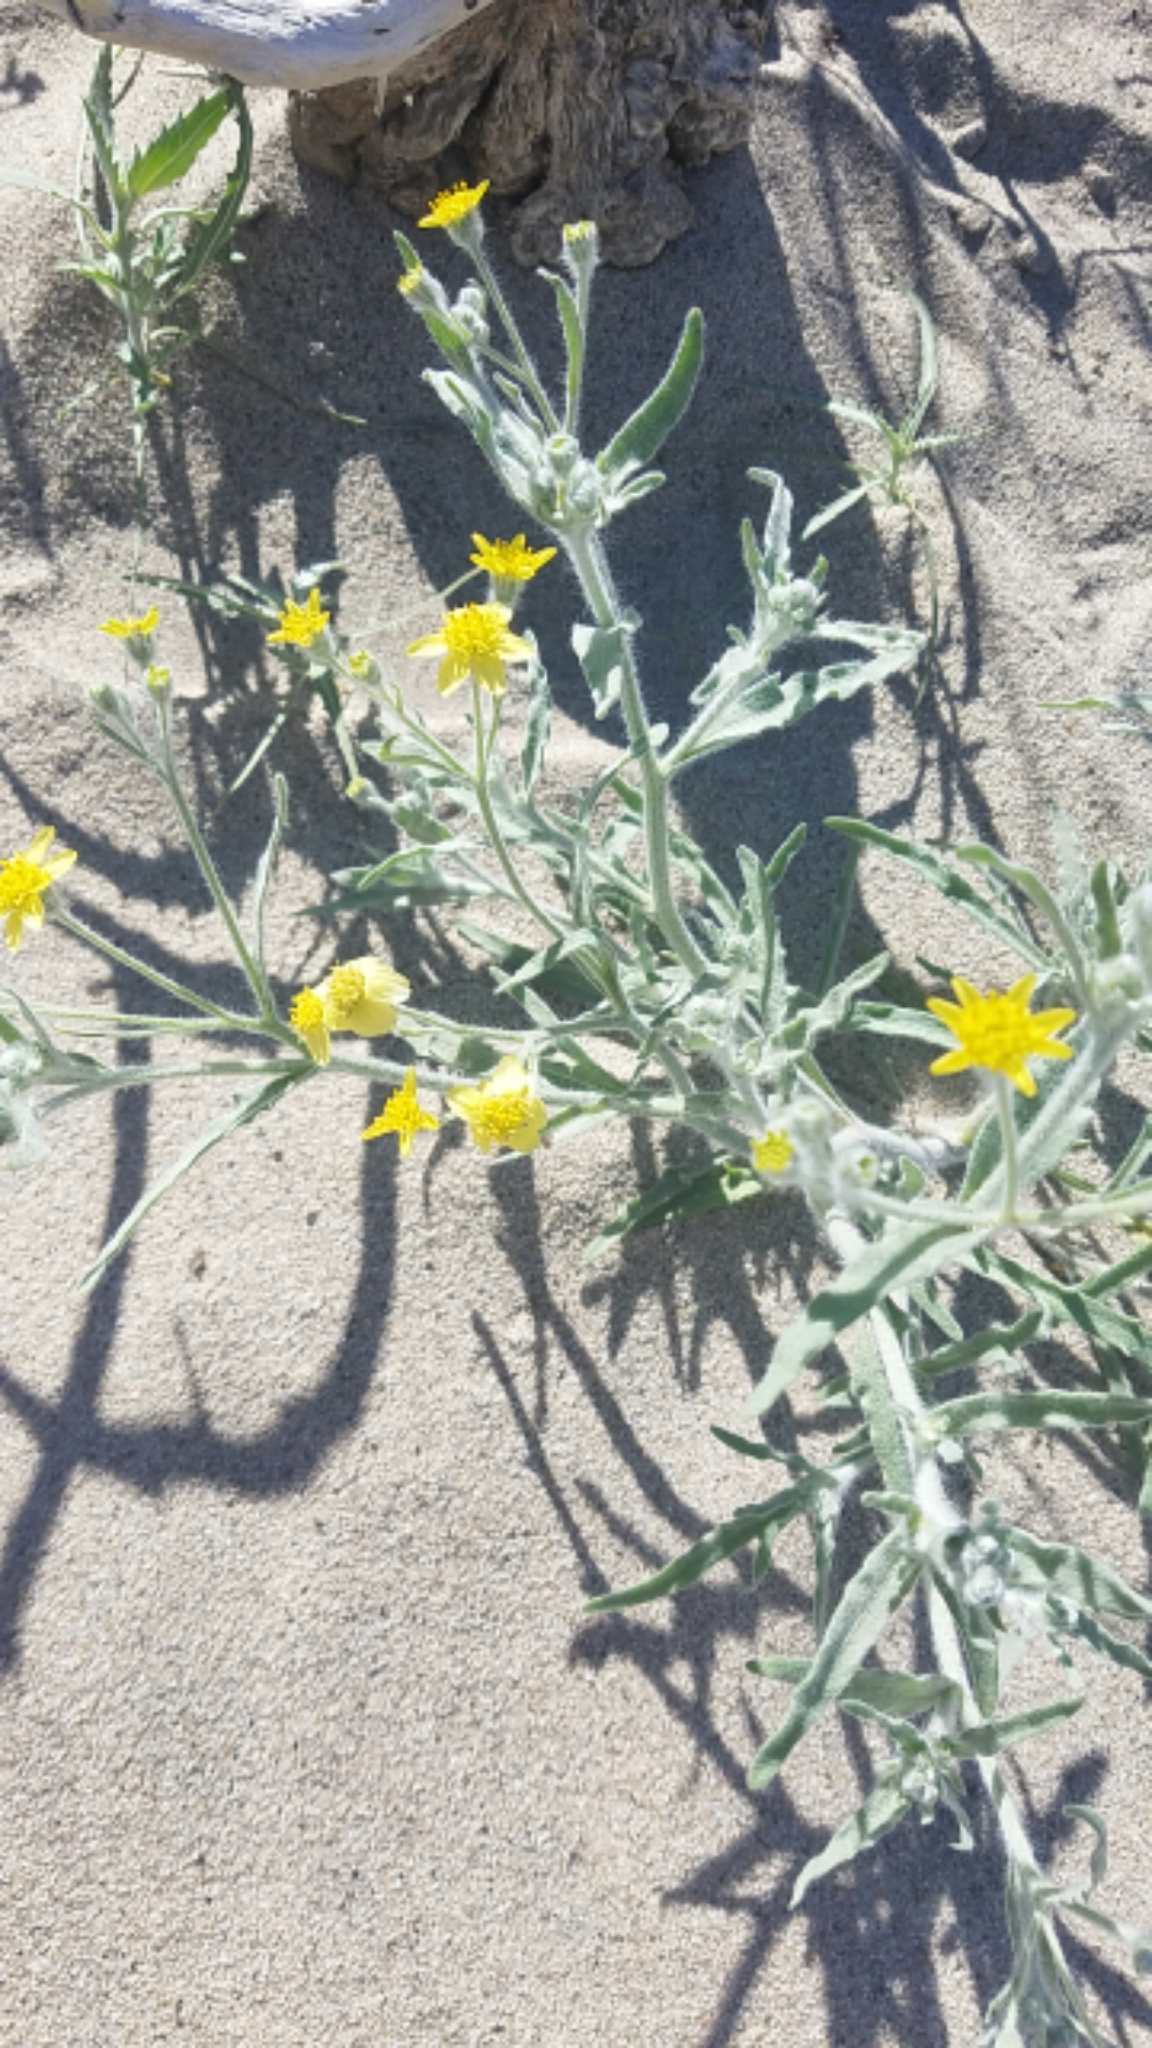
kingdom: Plantae
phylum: Tracheophyta
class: Magnoliopsida
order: Asterales
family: Asteraceae
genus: Baileya
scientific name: Baileya pauciradiata
